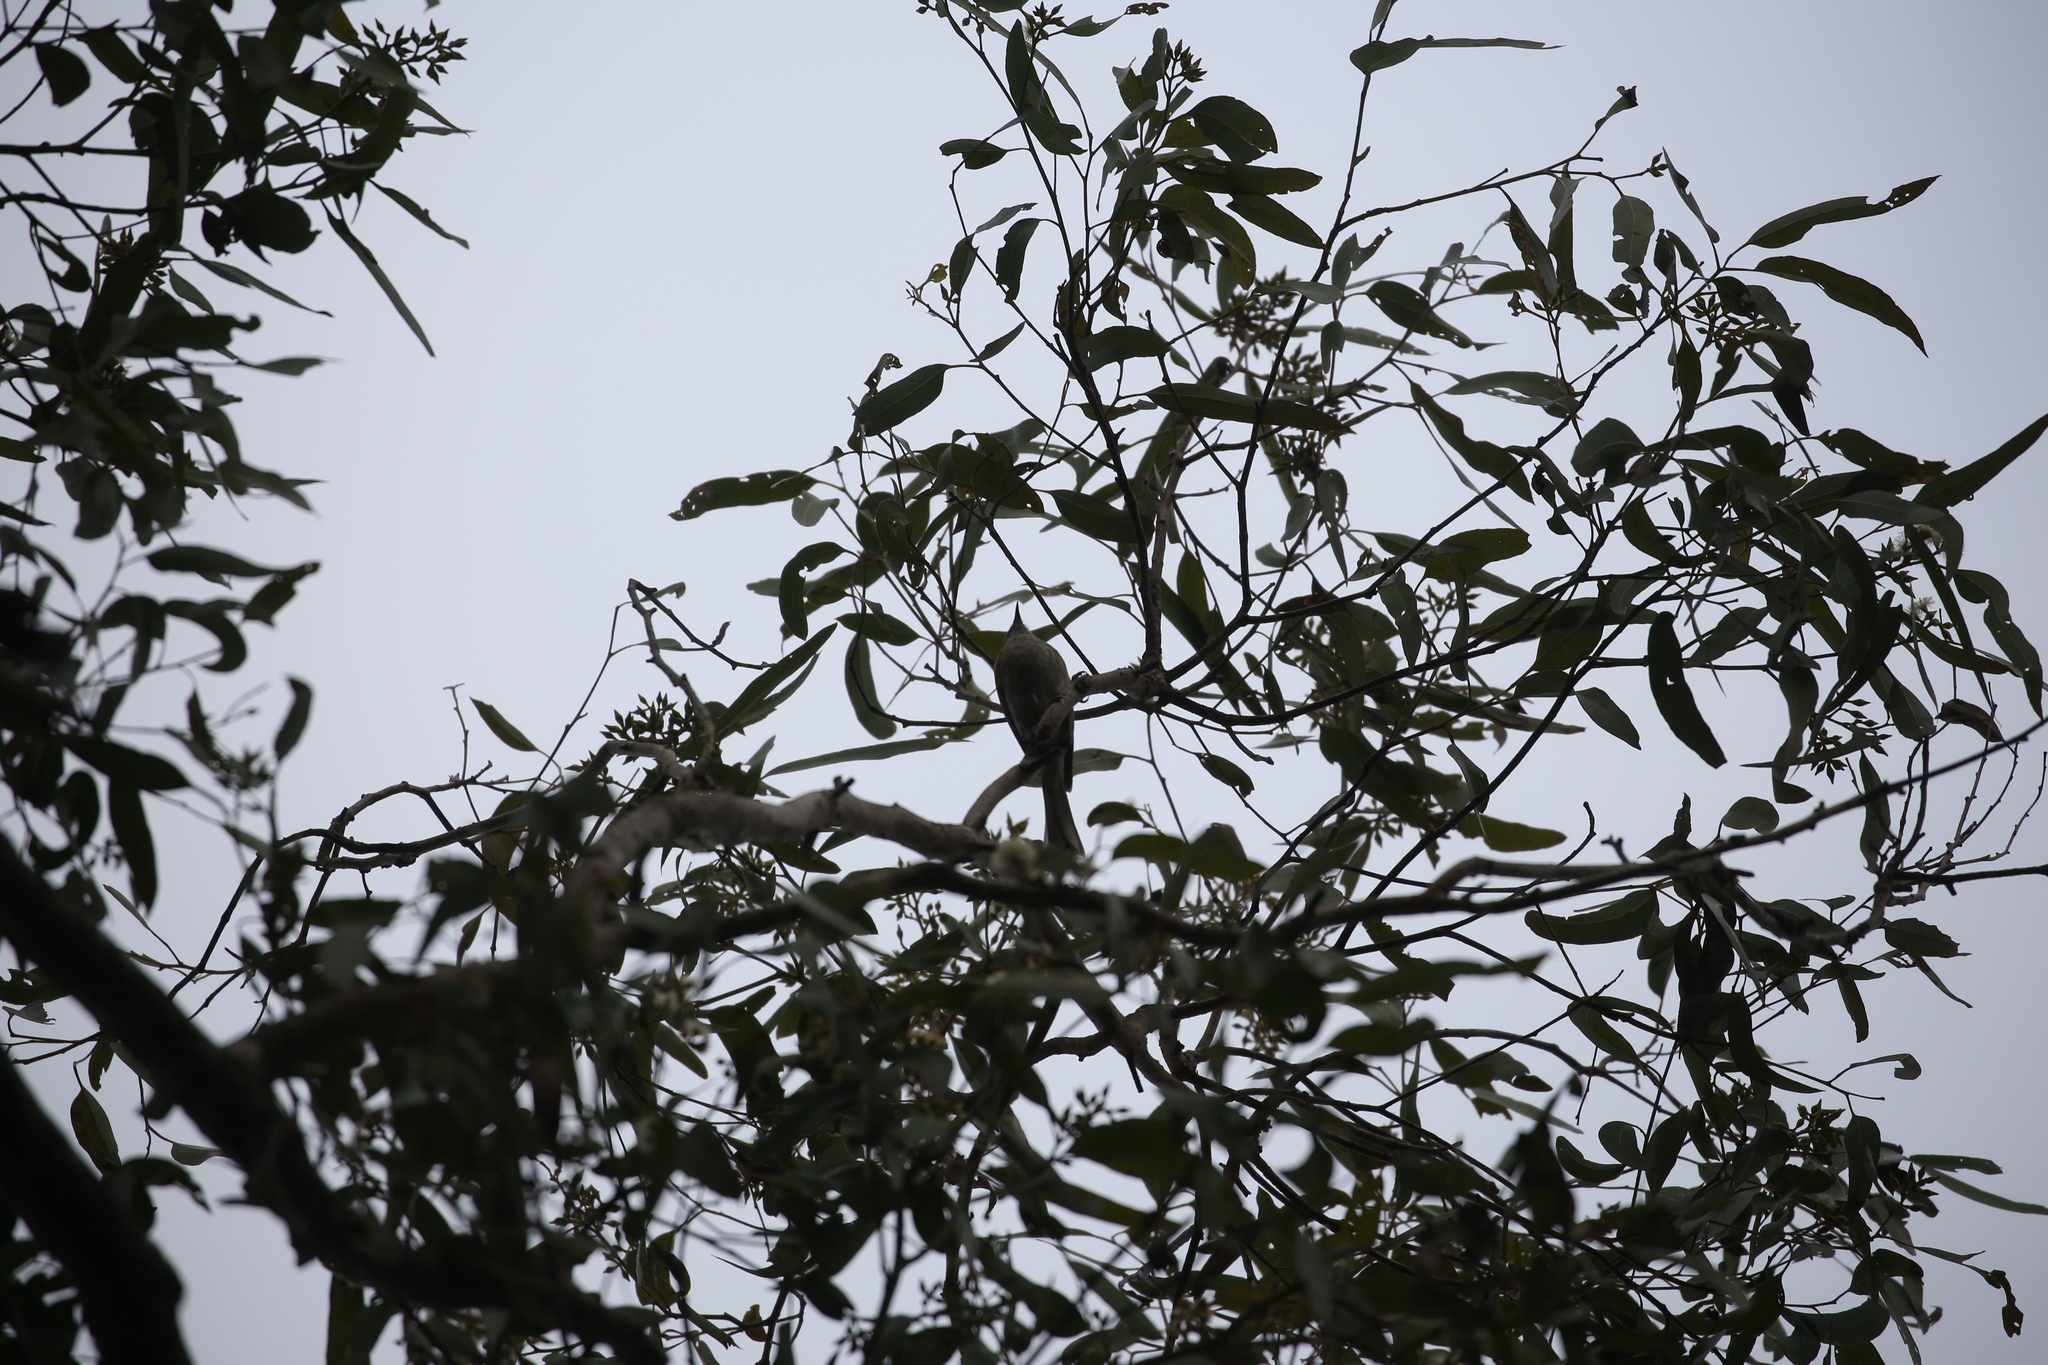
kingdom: Animalia
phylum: Chordata
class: Aves
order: Passeriformes
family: Meliphagidae
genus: Caligavis
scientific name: Caligavis chrysops
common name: Yellow-faced honeyeater
